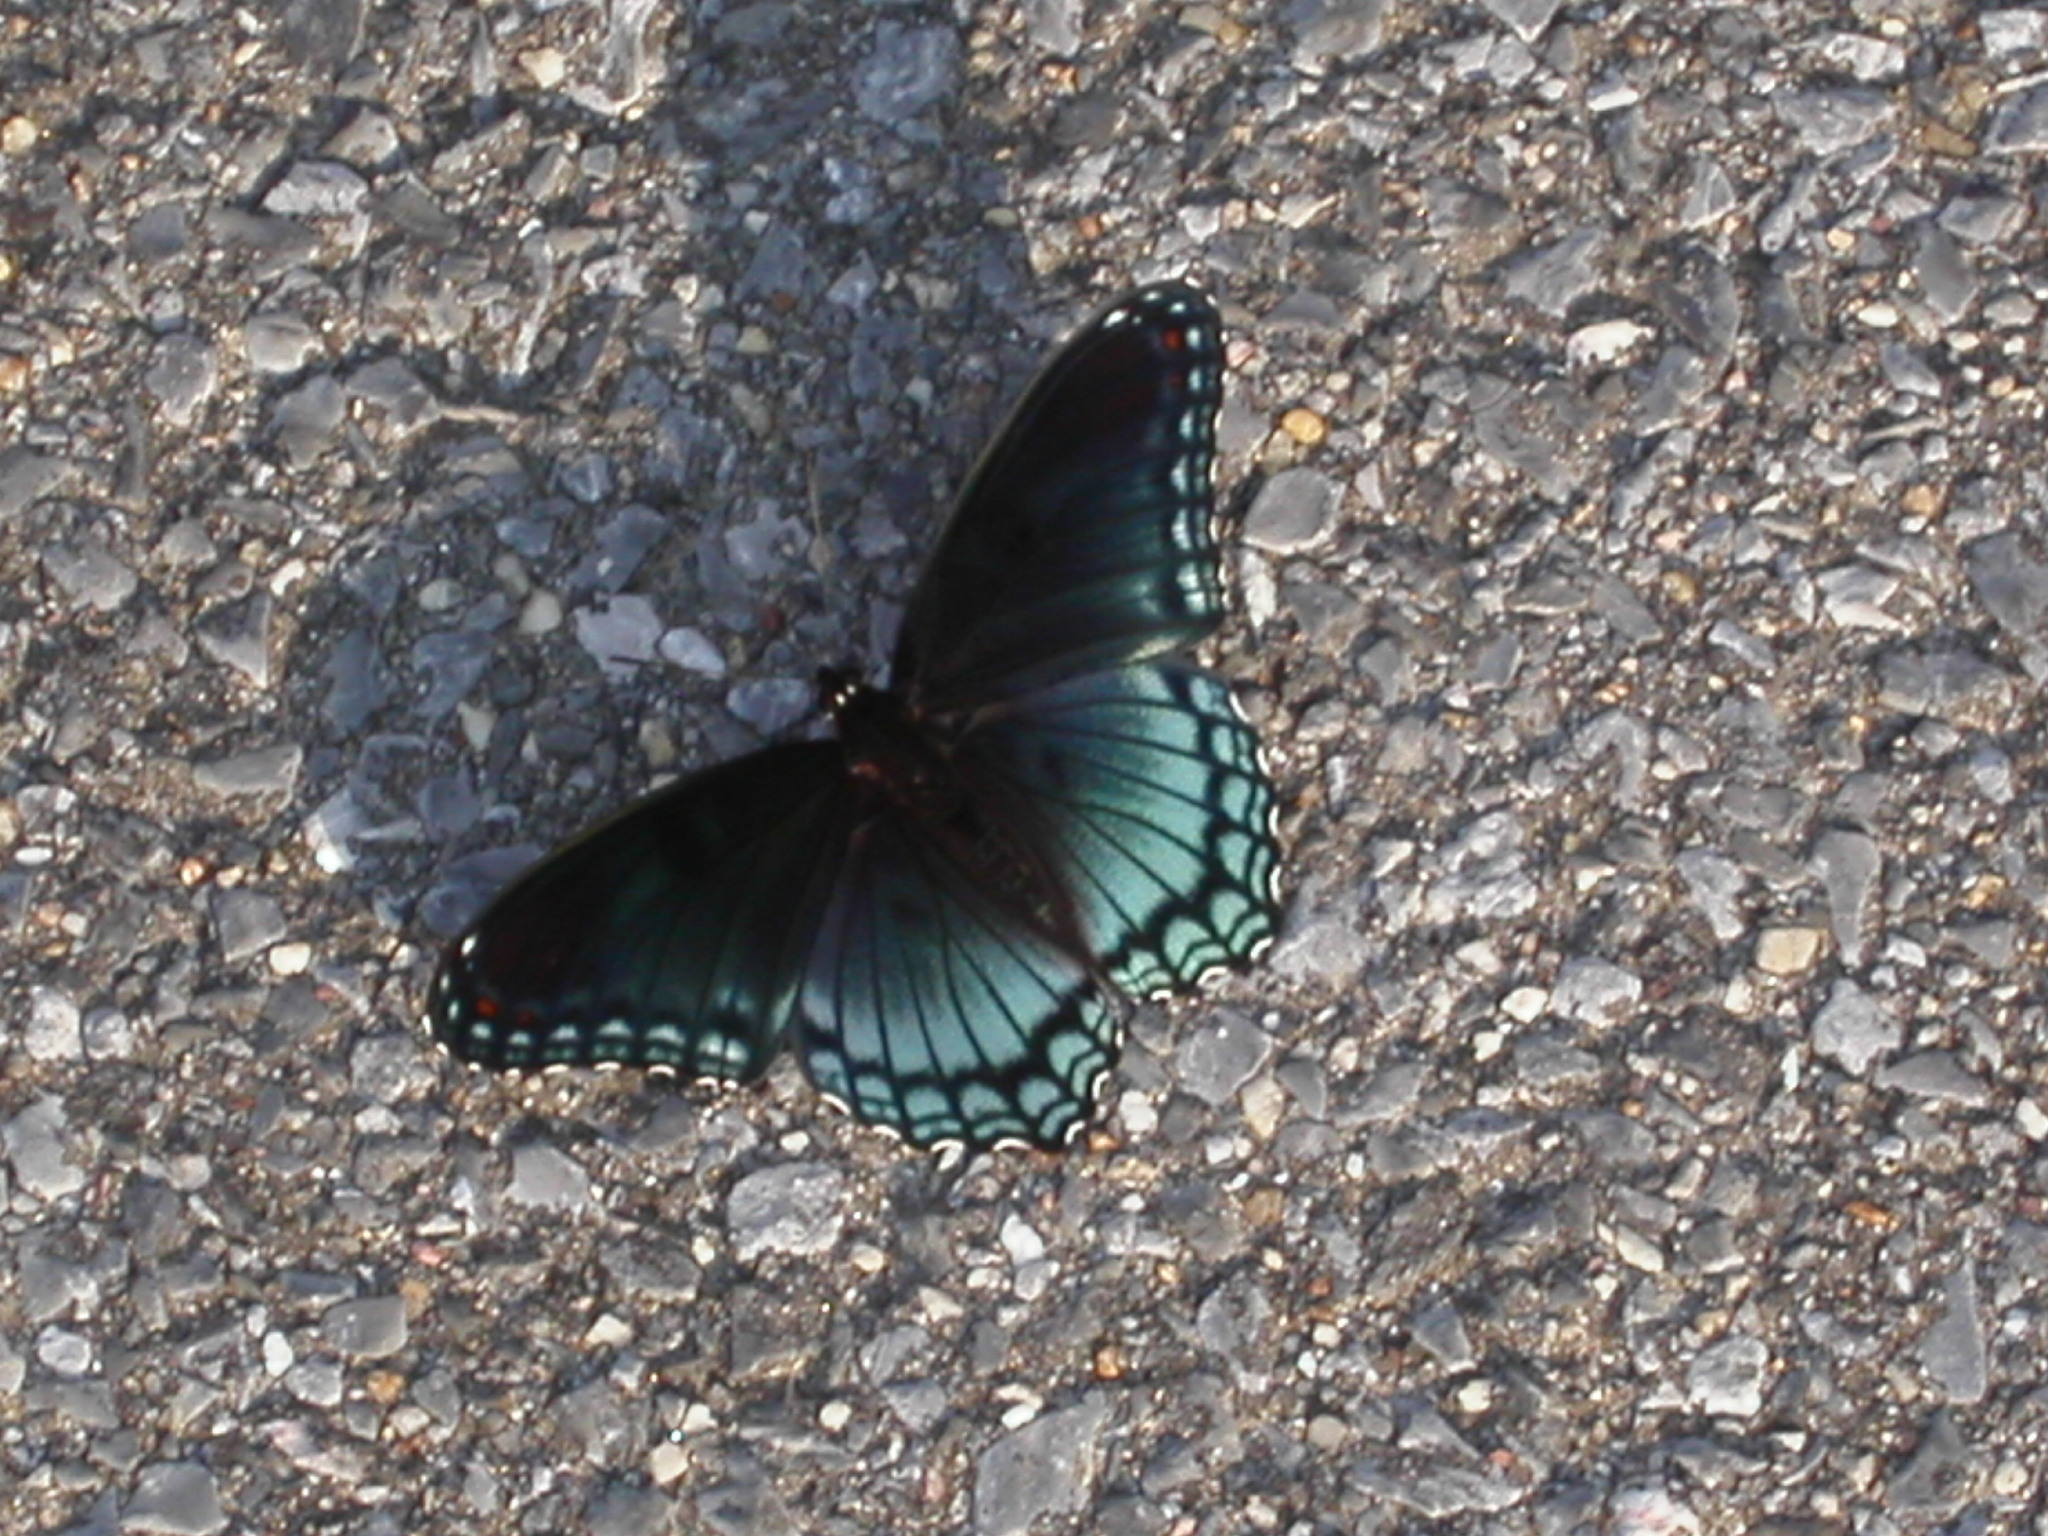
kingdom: Animalia
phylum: Arthropoda
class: Insecta
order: Lepidoptera
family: Nymphalidae
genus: Limenitis
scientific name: Limenitis astyanax
